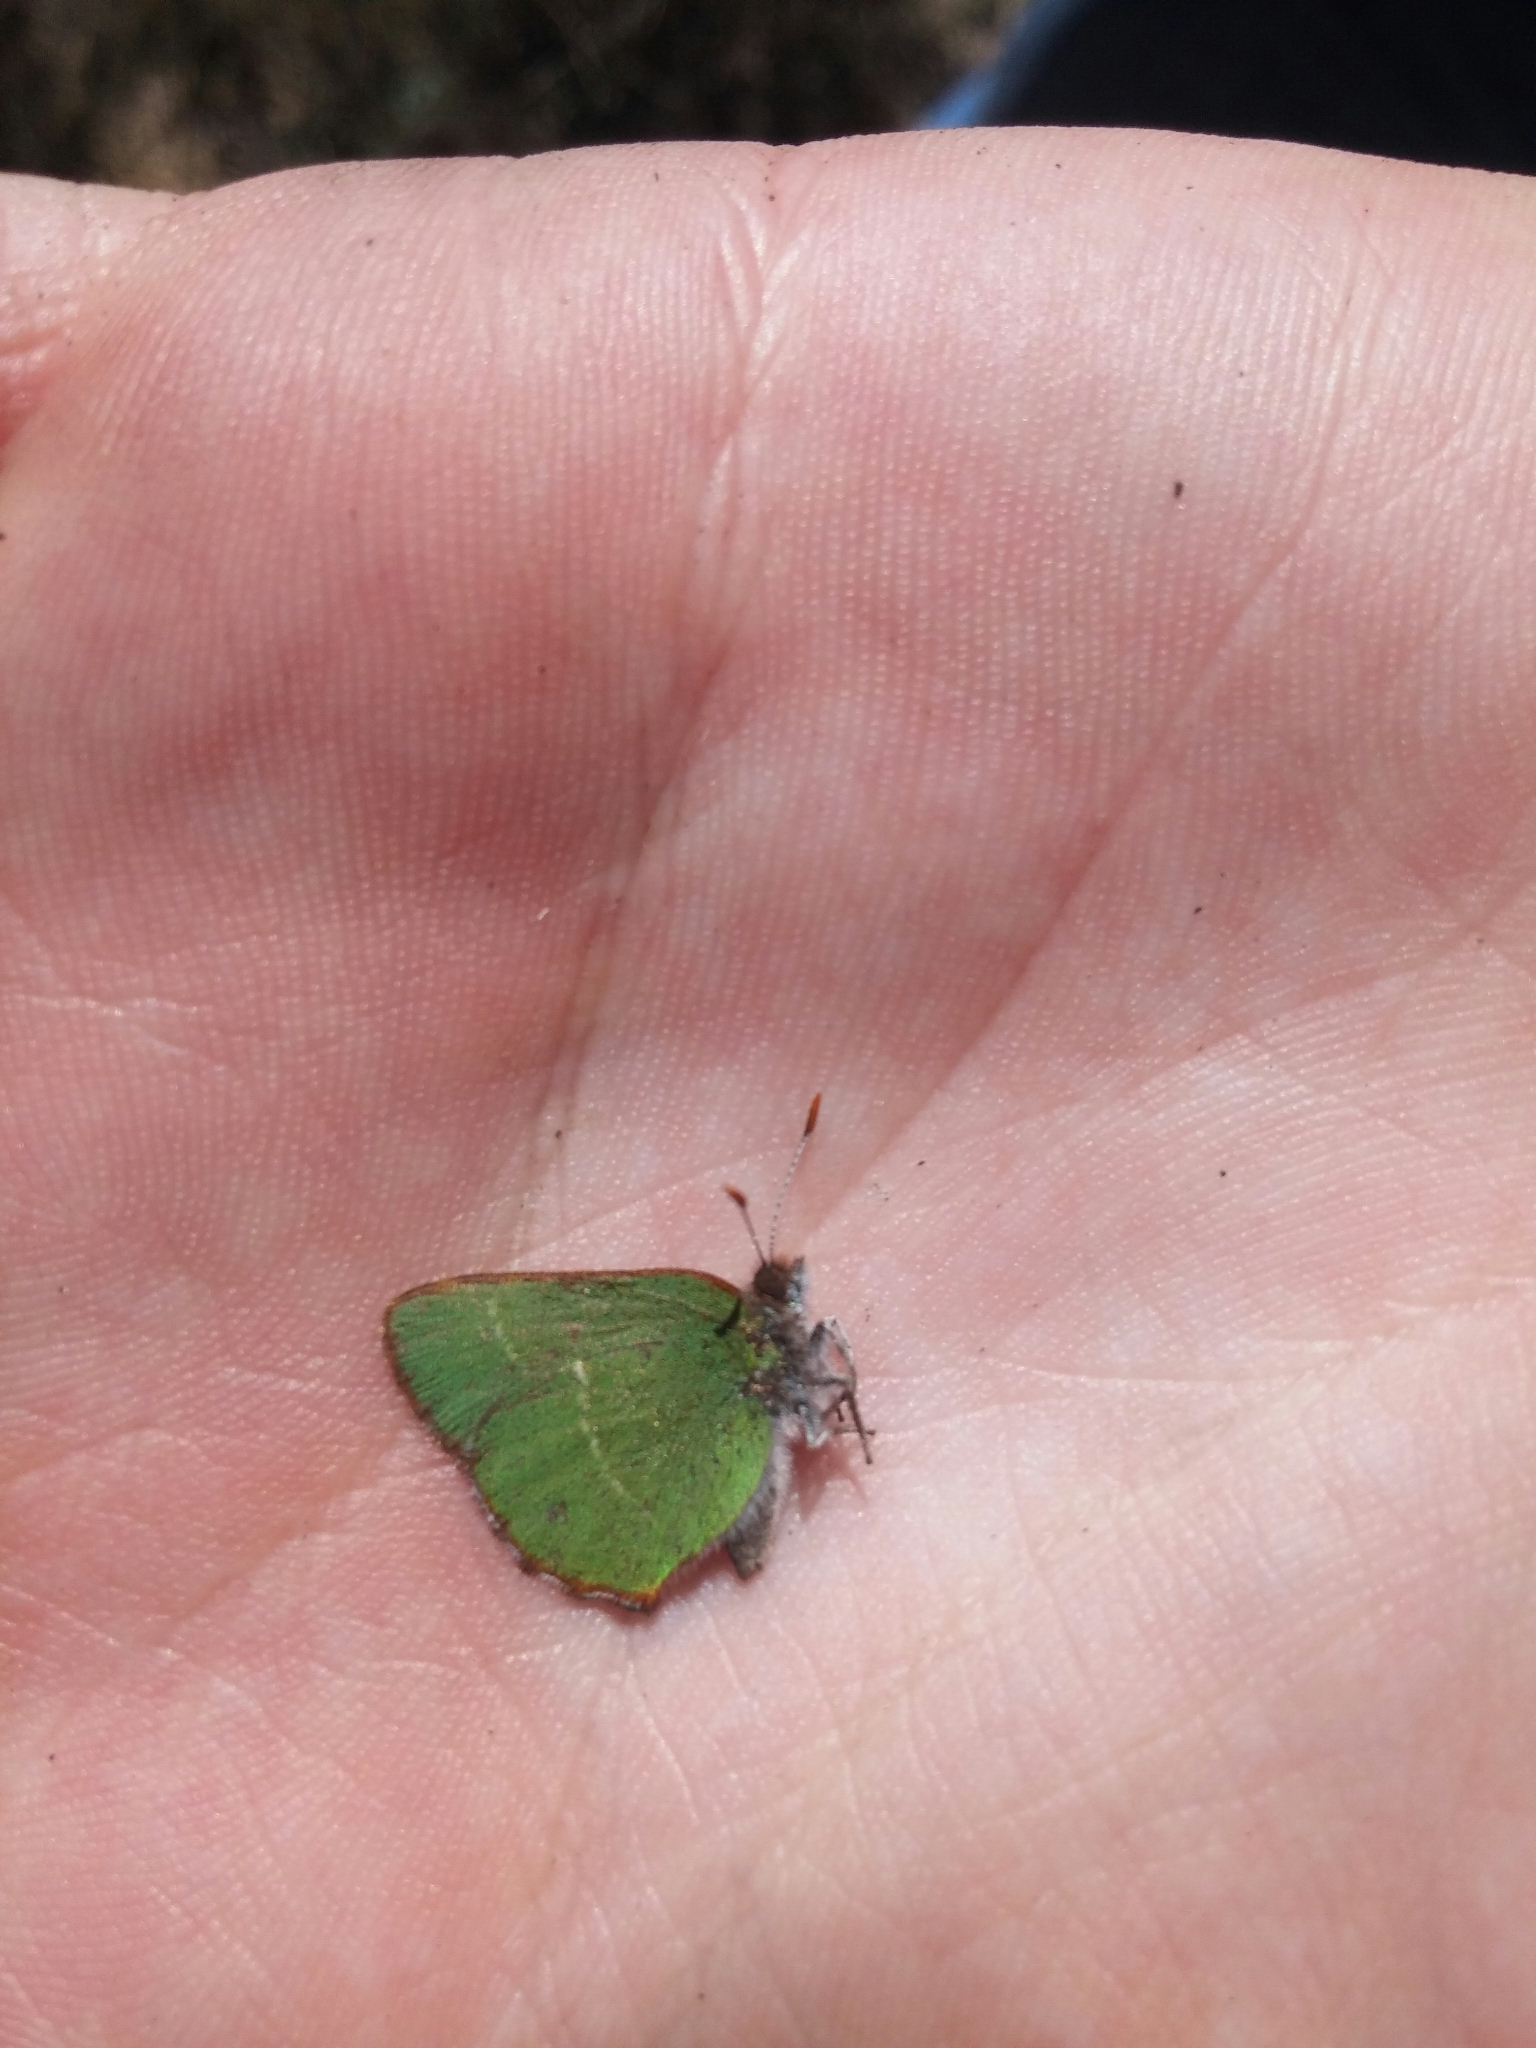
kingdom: Animalia
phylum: Arthropoda
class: Insecta
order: Lepidoptera
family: Lycaenidae
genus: Callophrys
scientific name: Callophrys avis
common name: Chapman's green hairstreak
